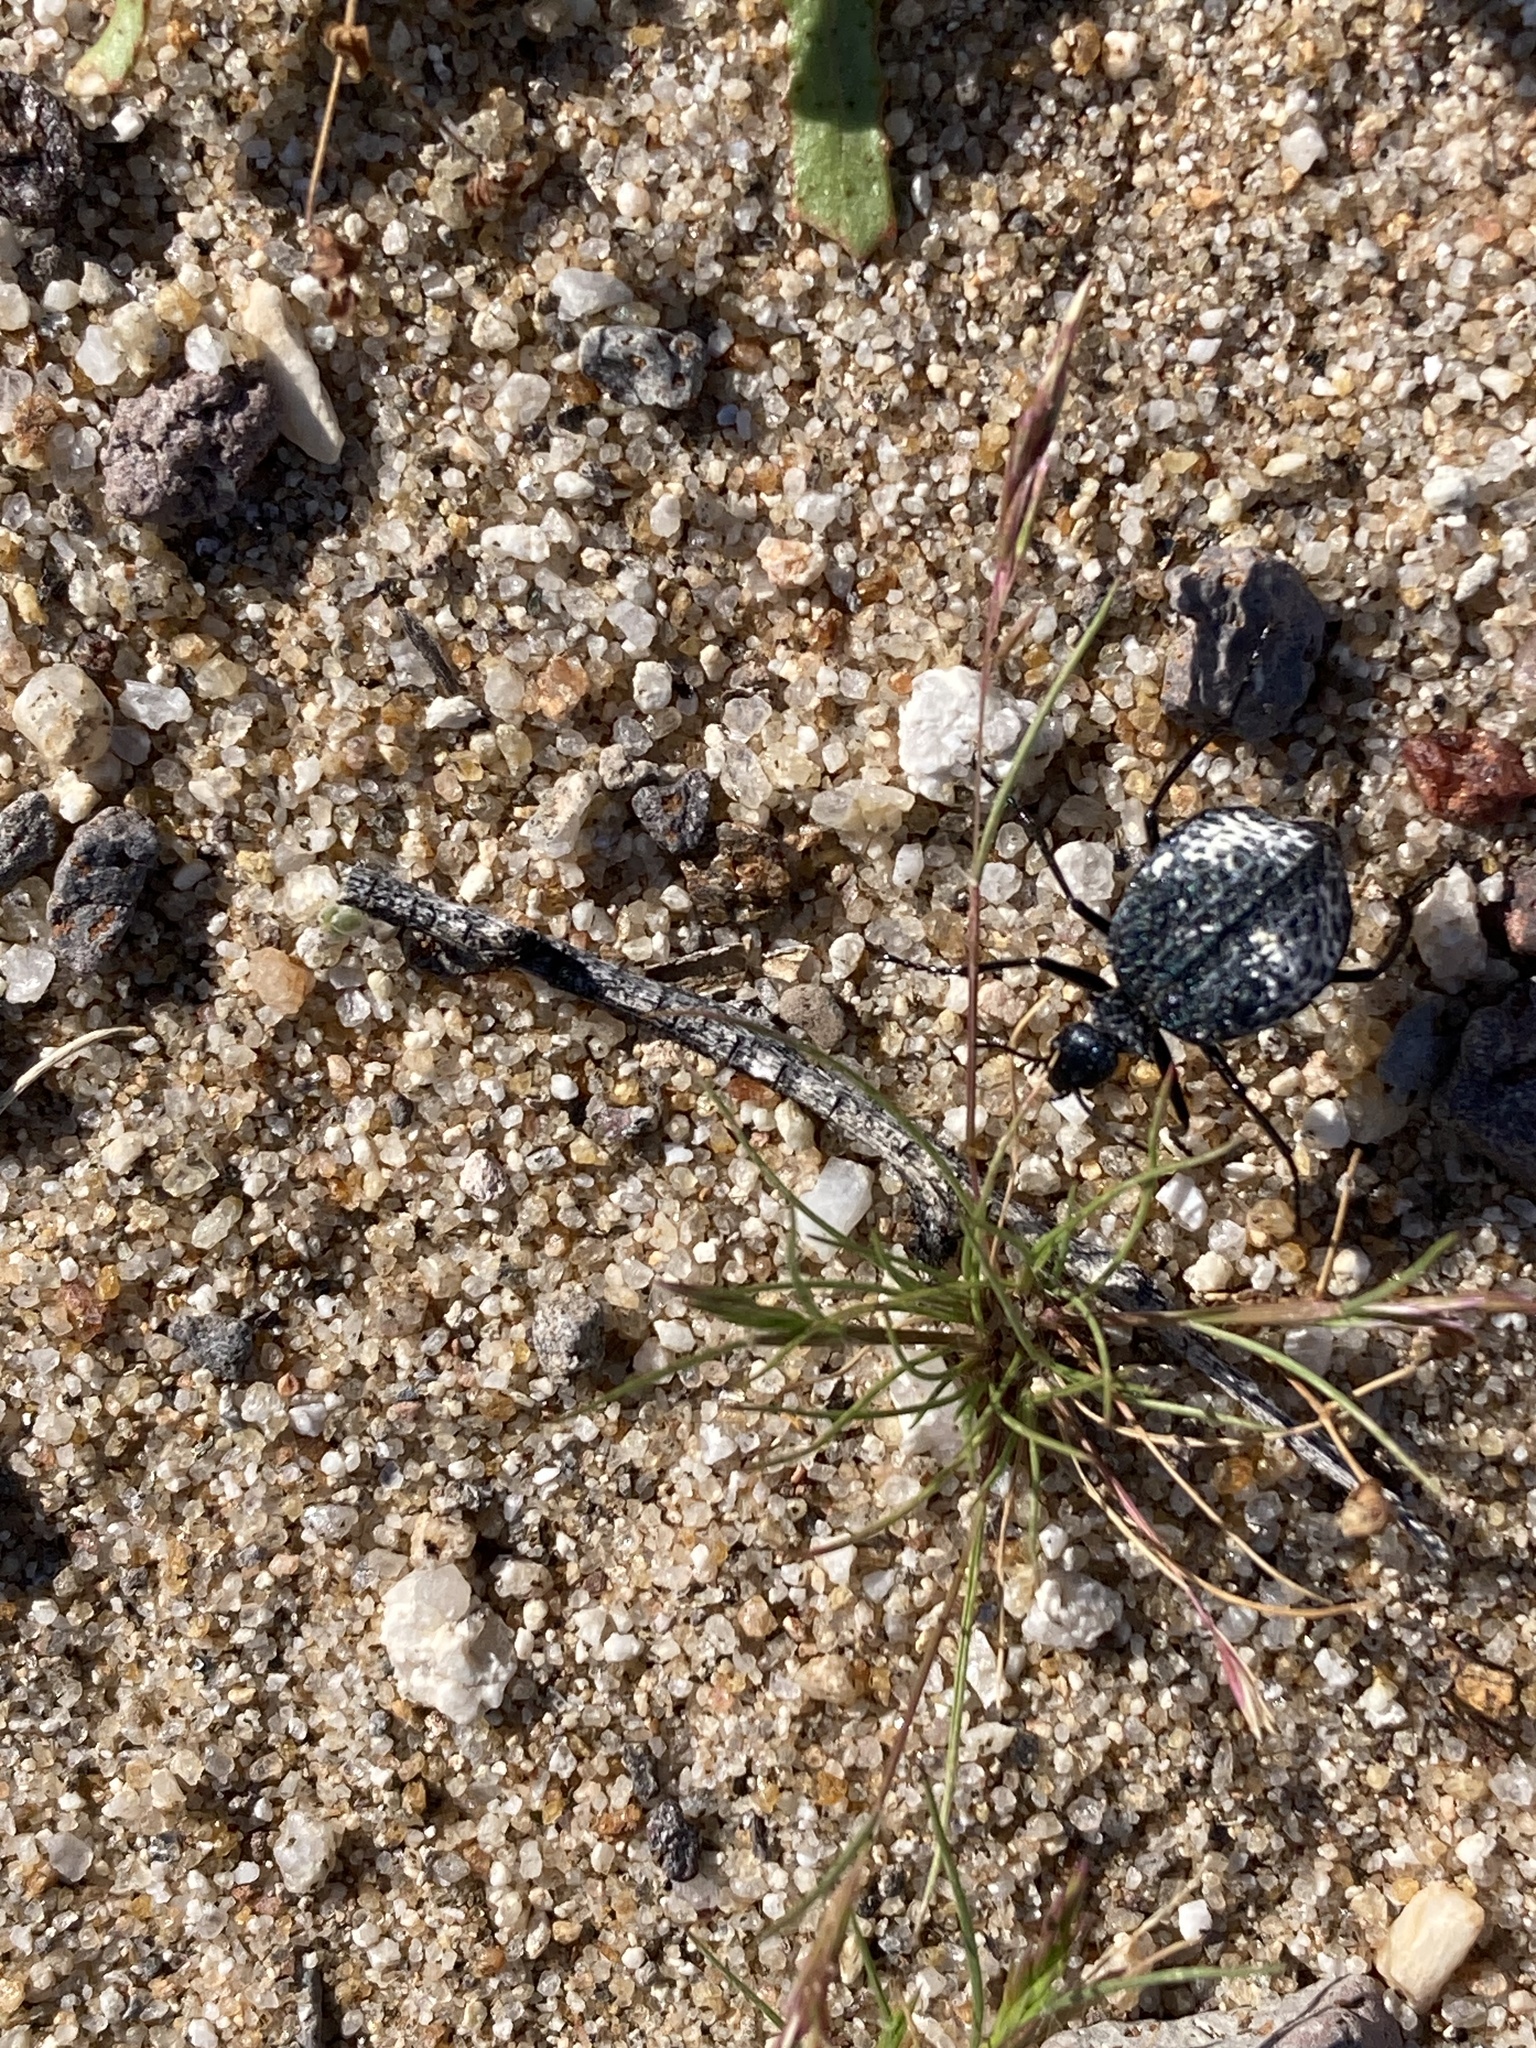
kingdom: Animalia
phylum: Arthropoda
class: Insecta
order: Coleoptera
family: Meloidae
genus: Cysteodemus
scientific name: Cysteodemus armatus
